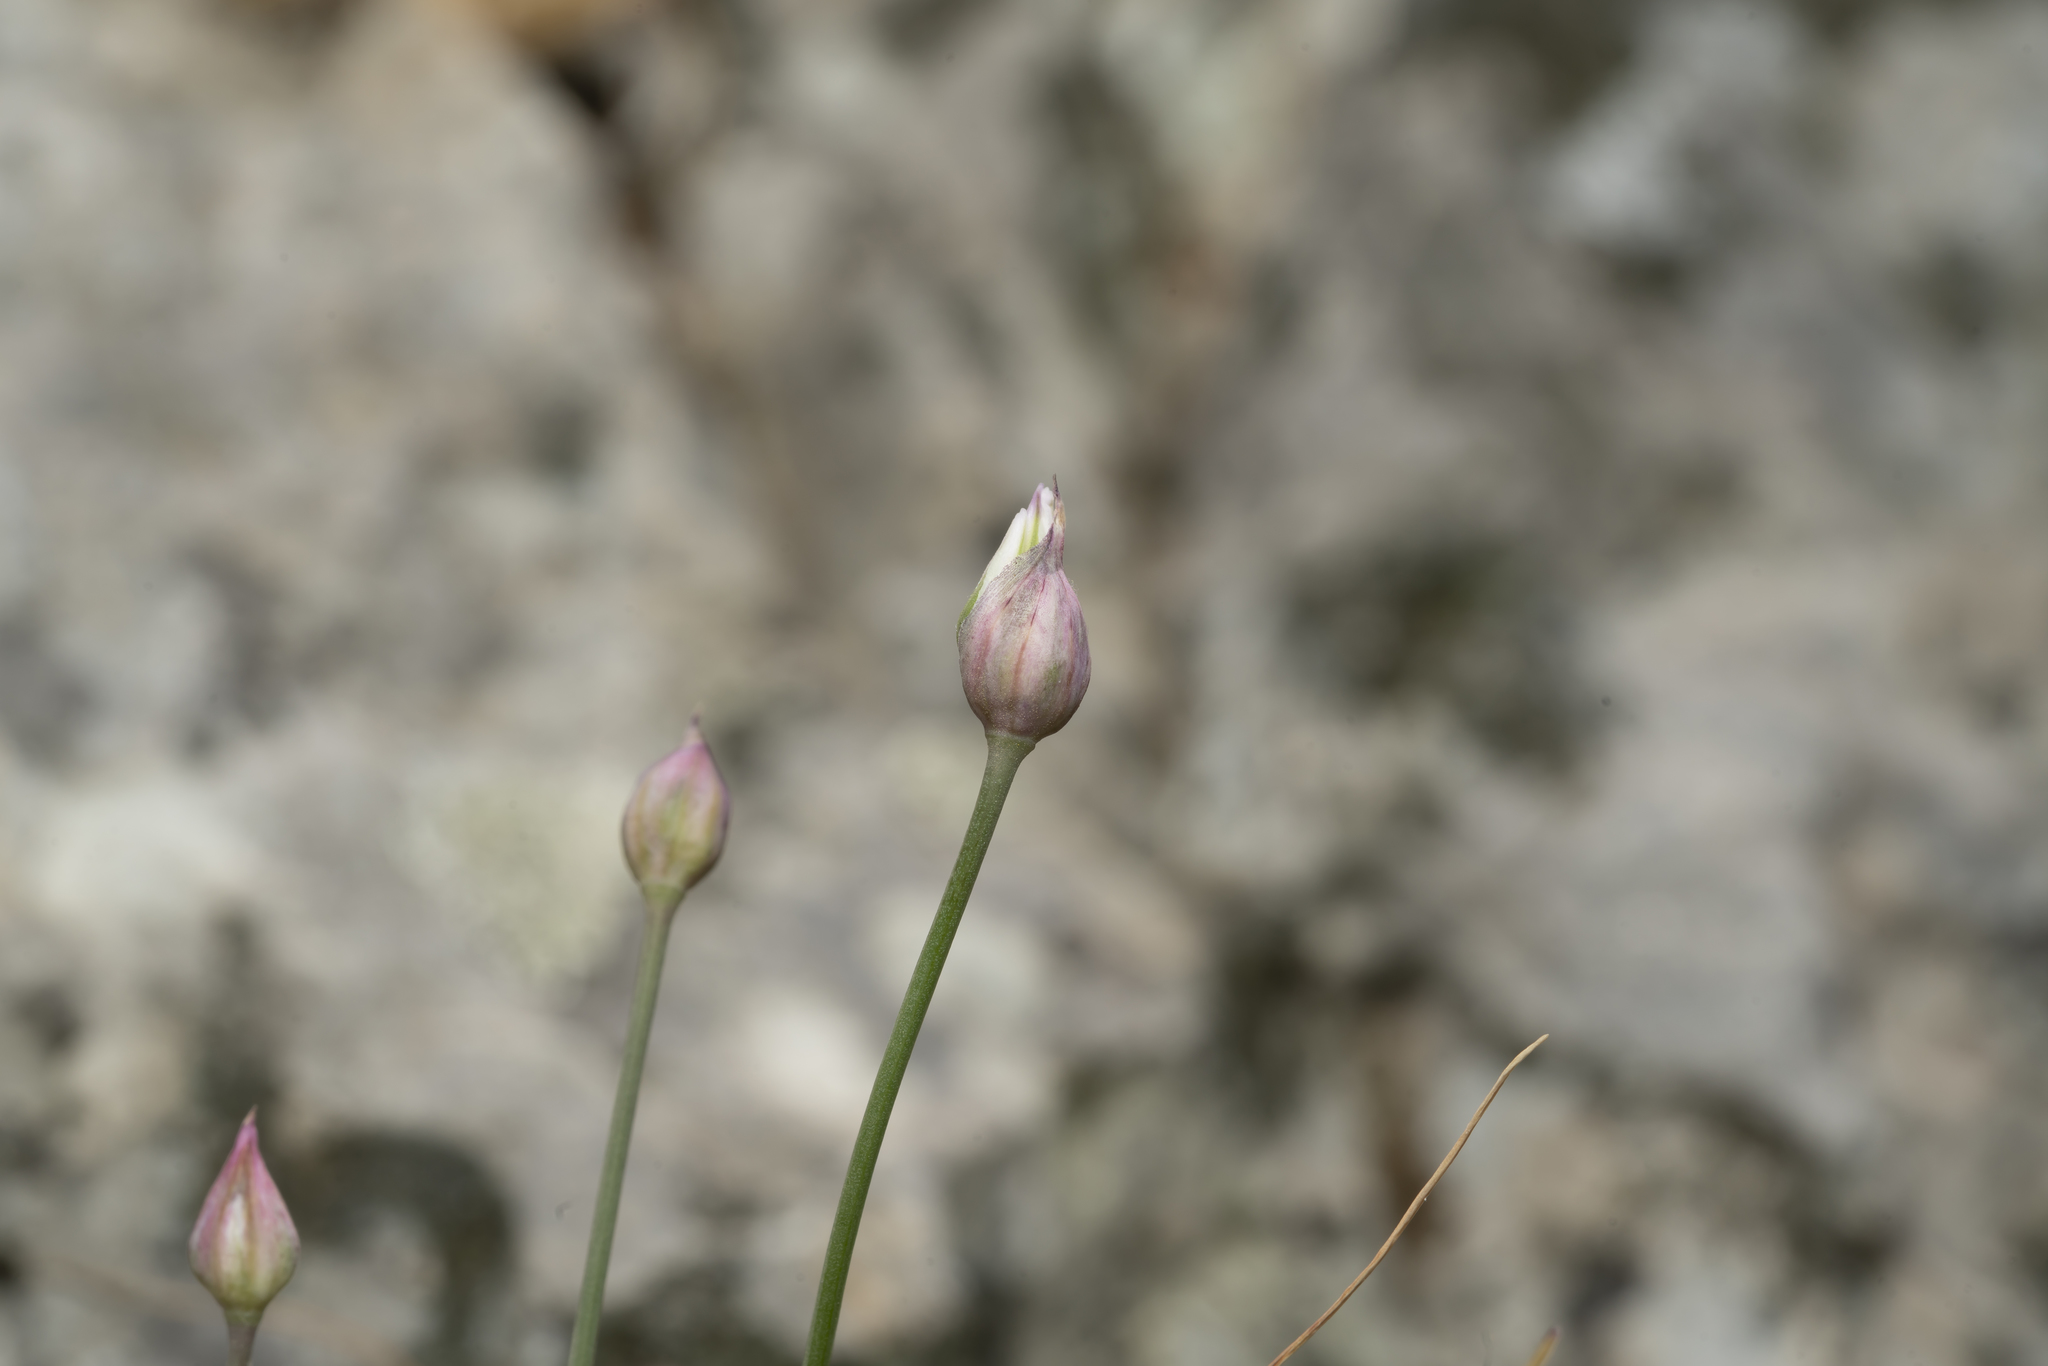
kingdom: Plantae
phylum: Tracheophyta
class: Liliopsida
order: Asparagales
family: Amaryllidaceae
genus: Allium
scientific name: Allium junceum
